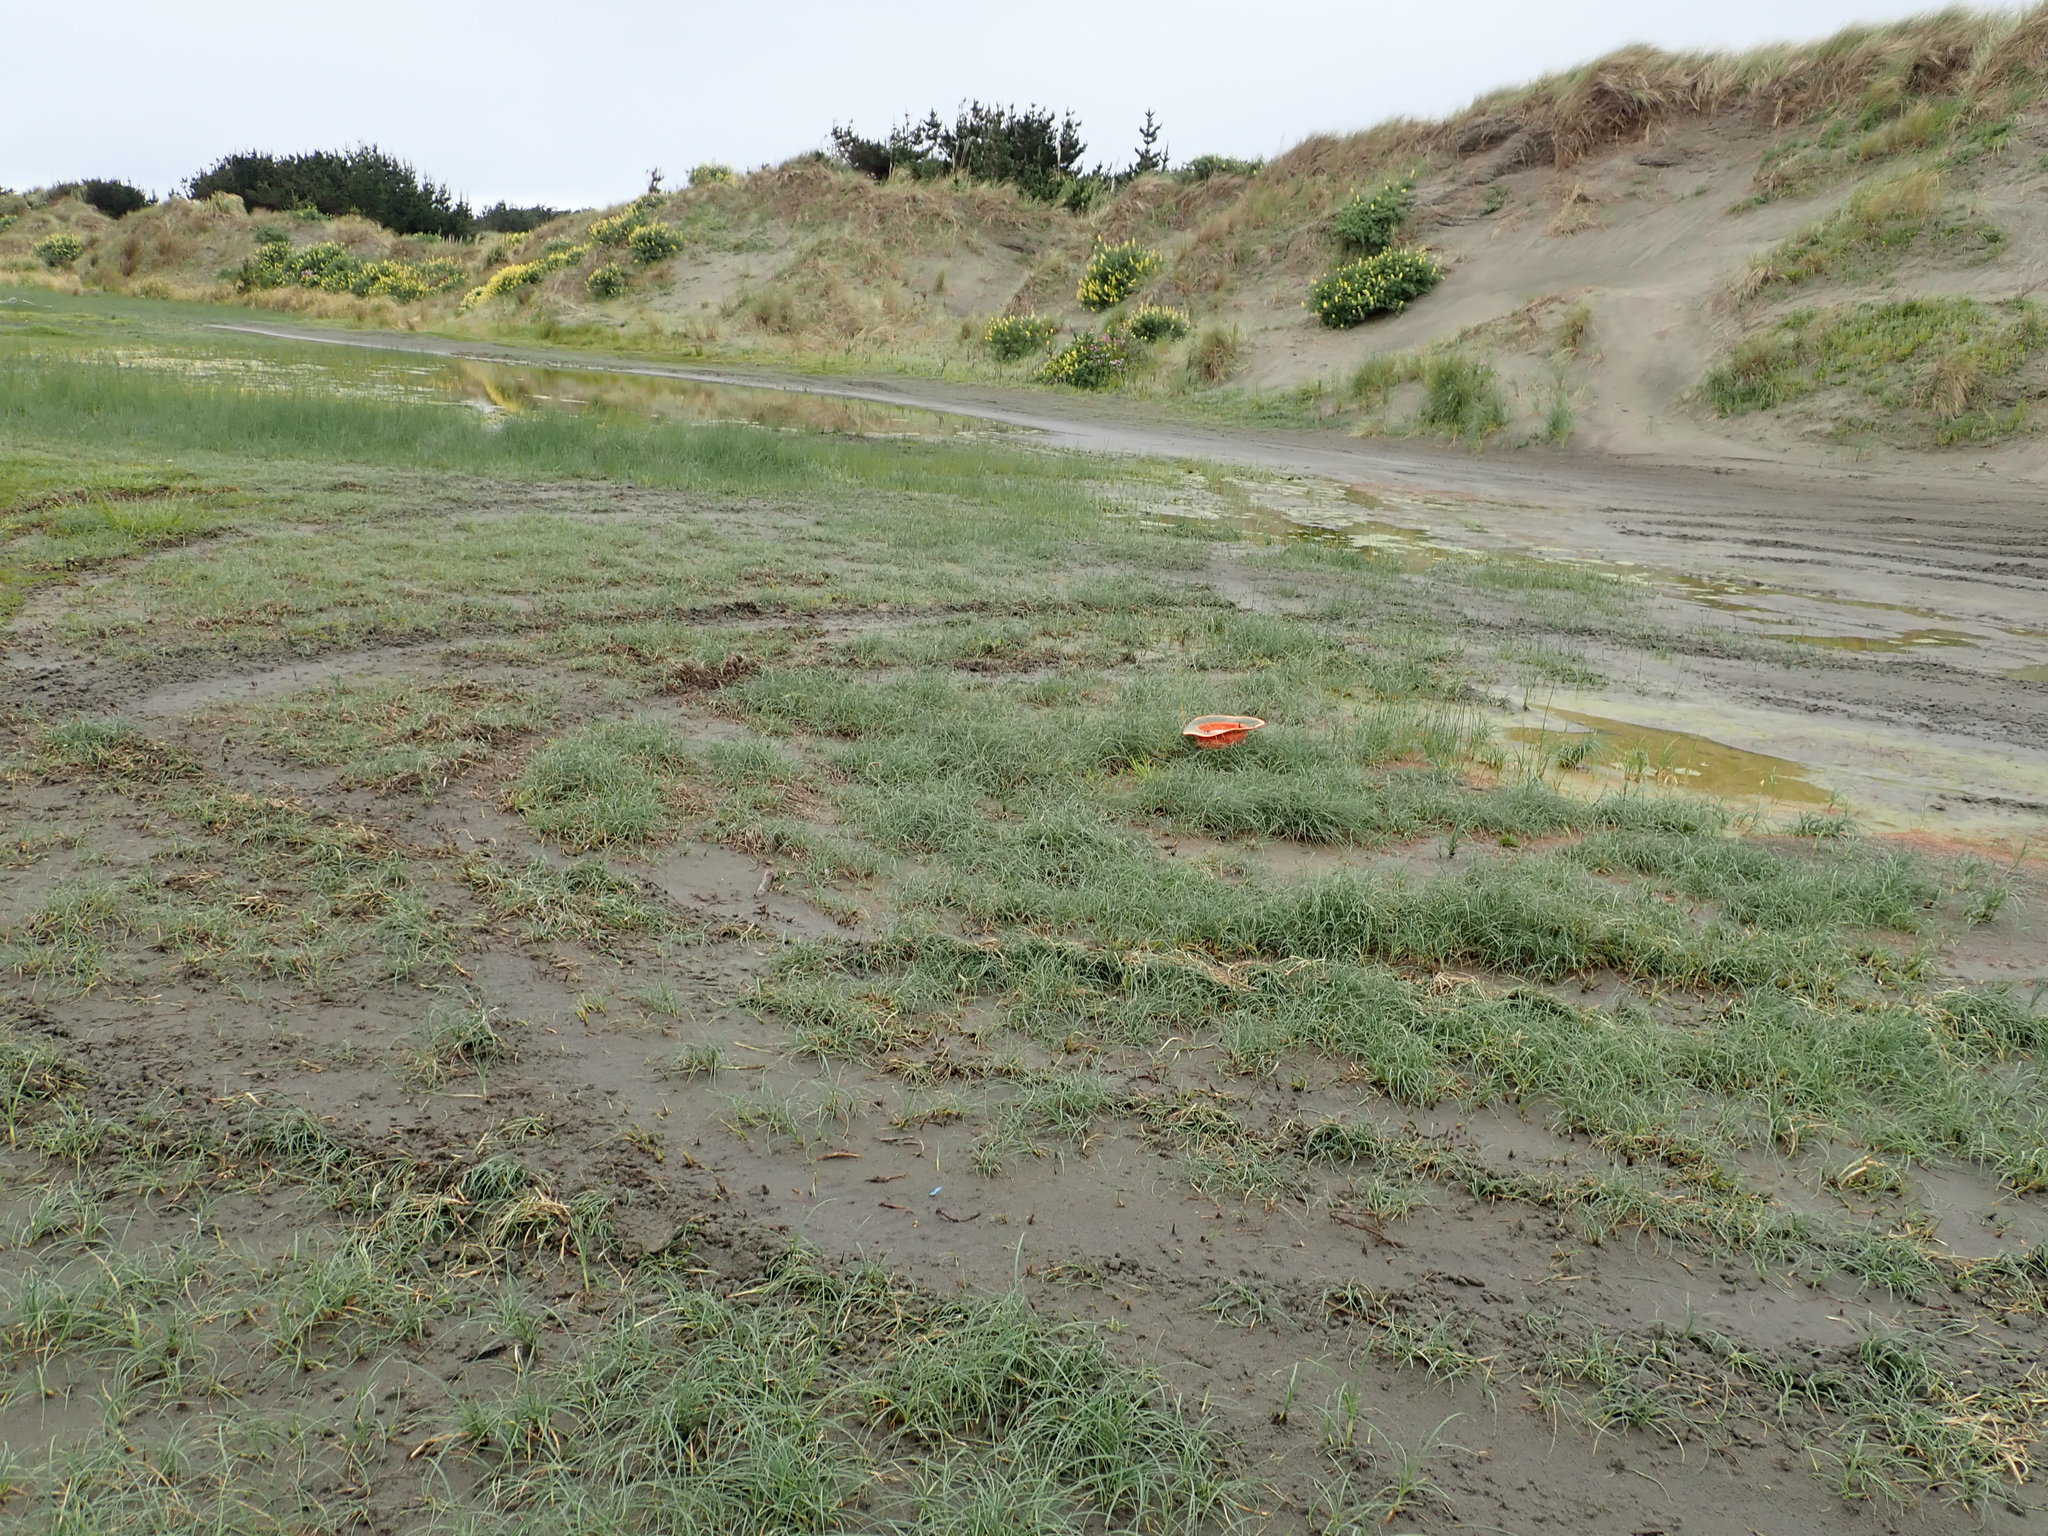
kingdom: Plantae
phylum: Tracheophyta
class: Liliopsida
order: Poales
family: Juncaceae
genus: Juncus
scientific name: Juncus articulatus
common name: Jointed rush
